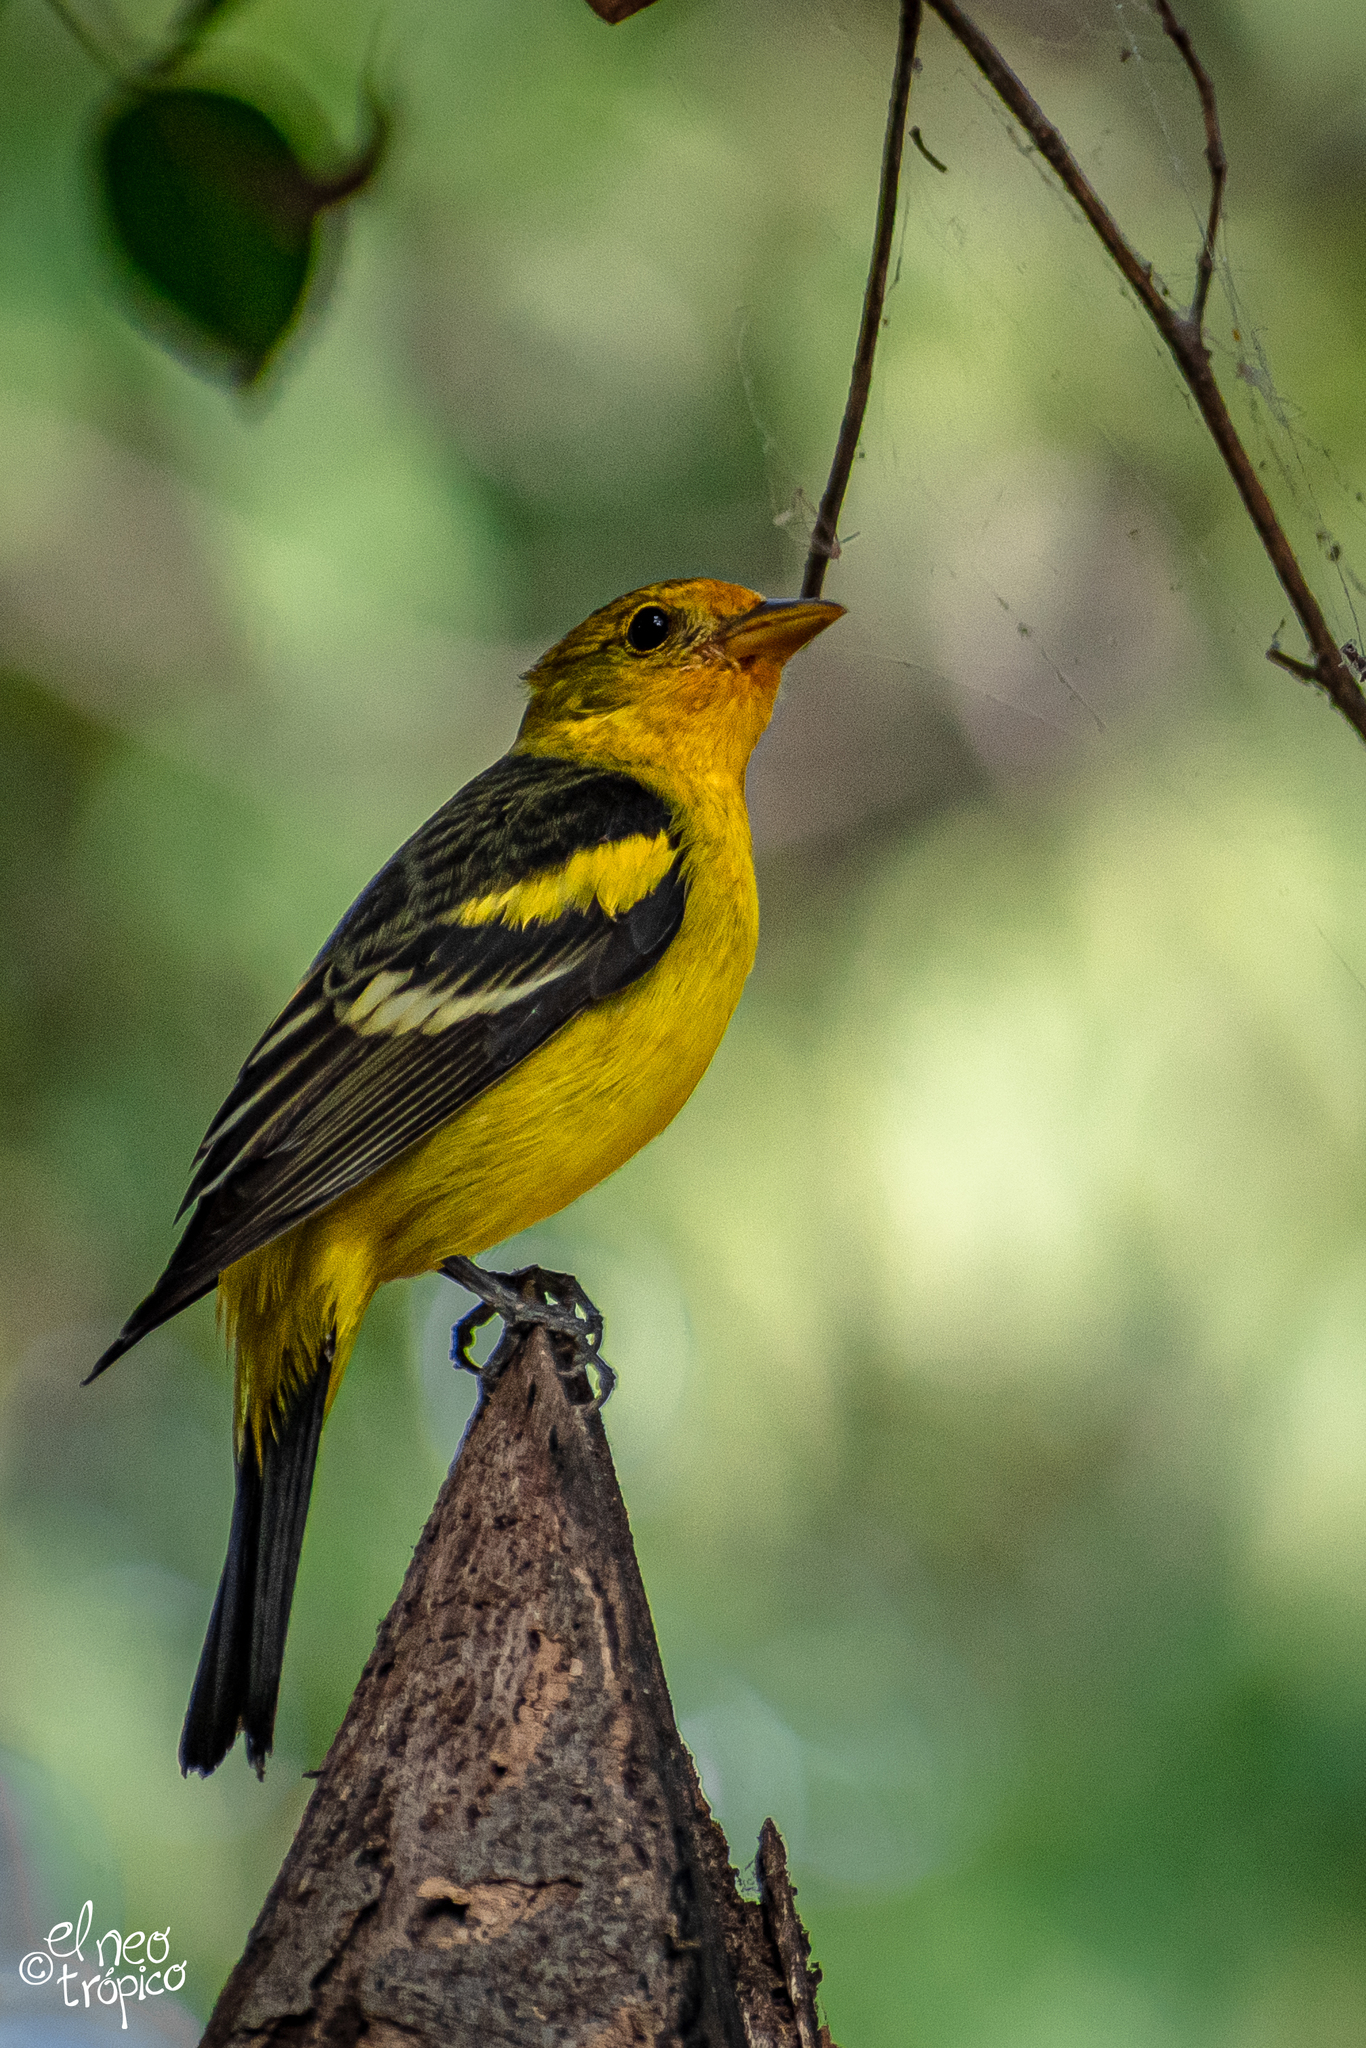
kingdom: Animalia
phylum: Chordata
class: Aves
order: Passeriformes
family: Cardinalidae
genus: Piranga
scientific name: Piranga ludoviciana
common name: Western tanager
